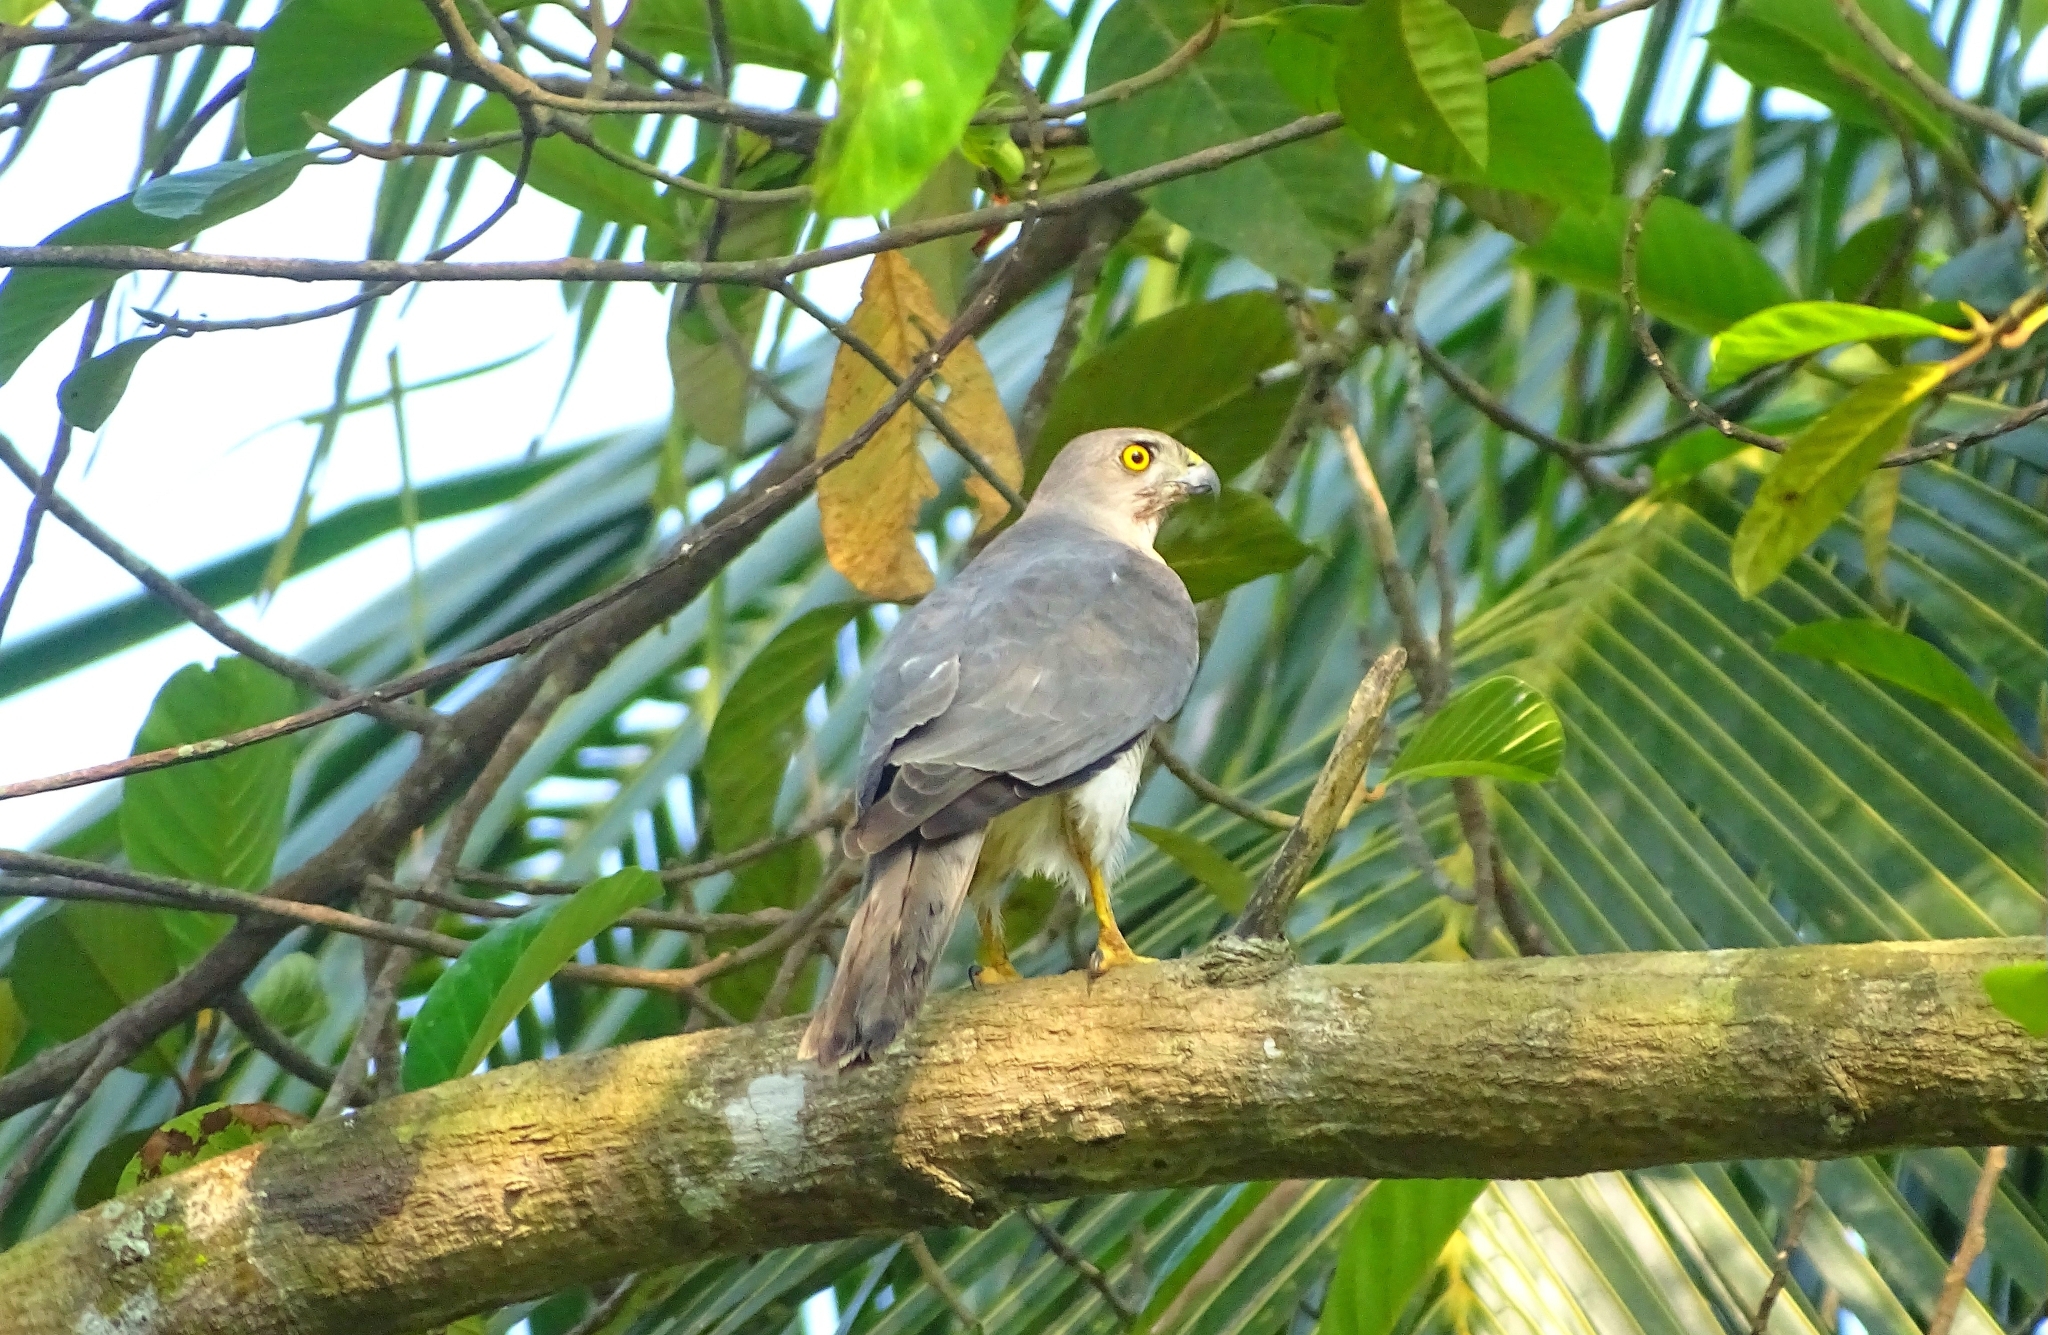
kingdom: Animalia
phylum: Chordata
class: Aves
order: Accipitriformes
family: Accipitridae
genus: Accipiter
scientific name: Accipiter badius
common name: Shikra
